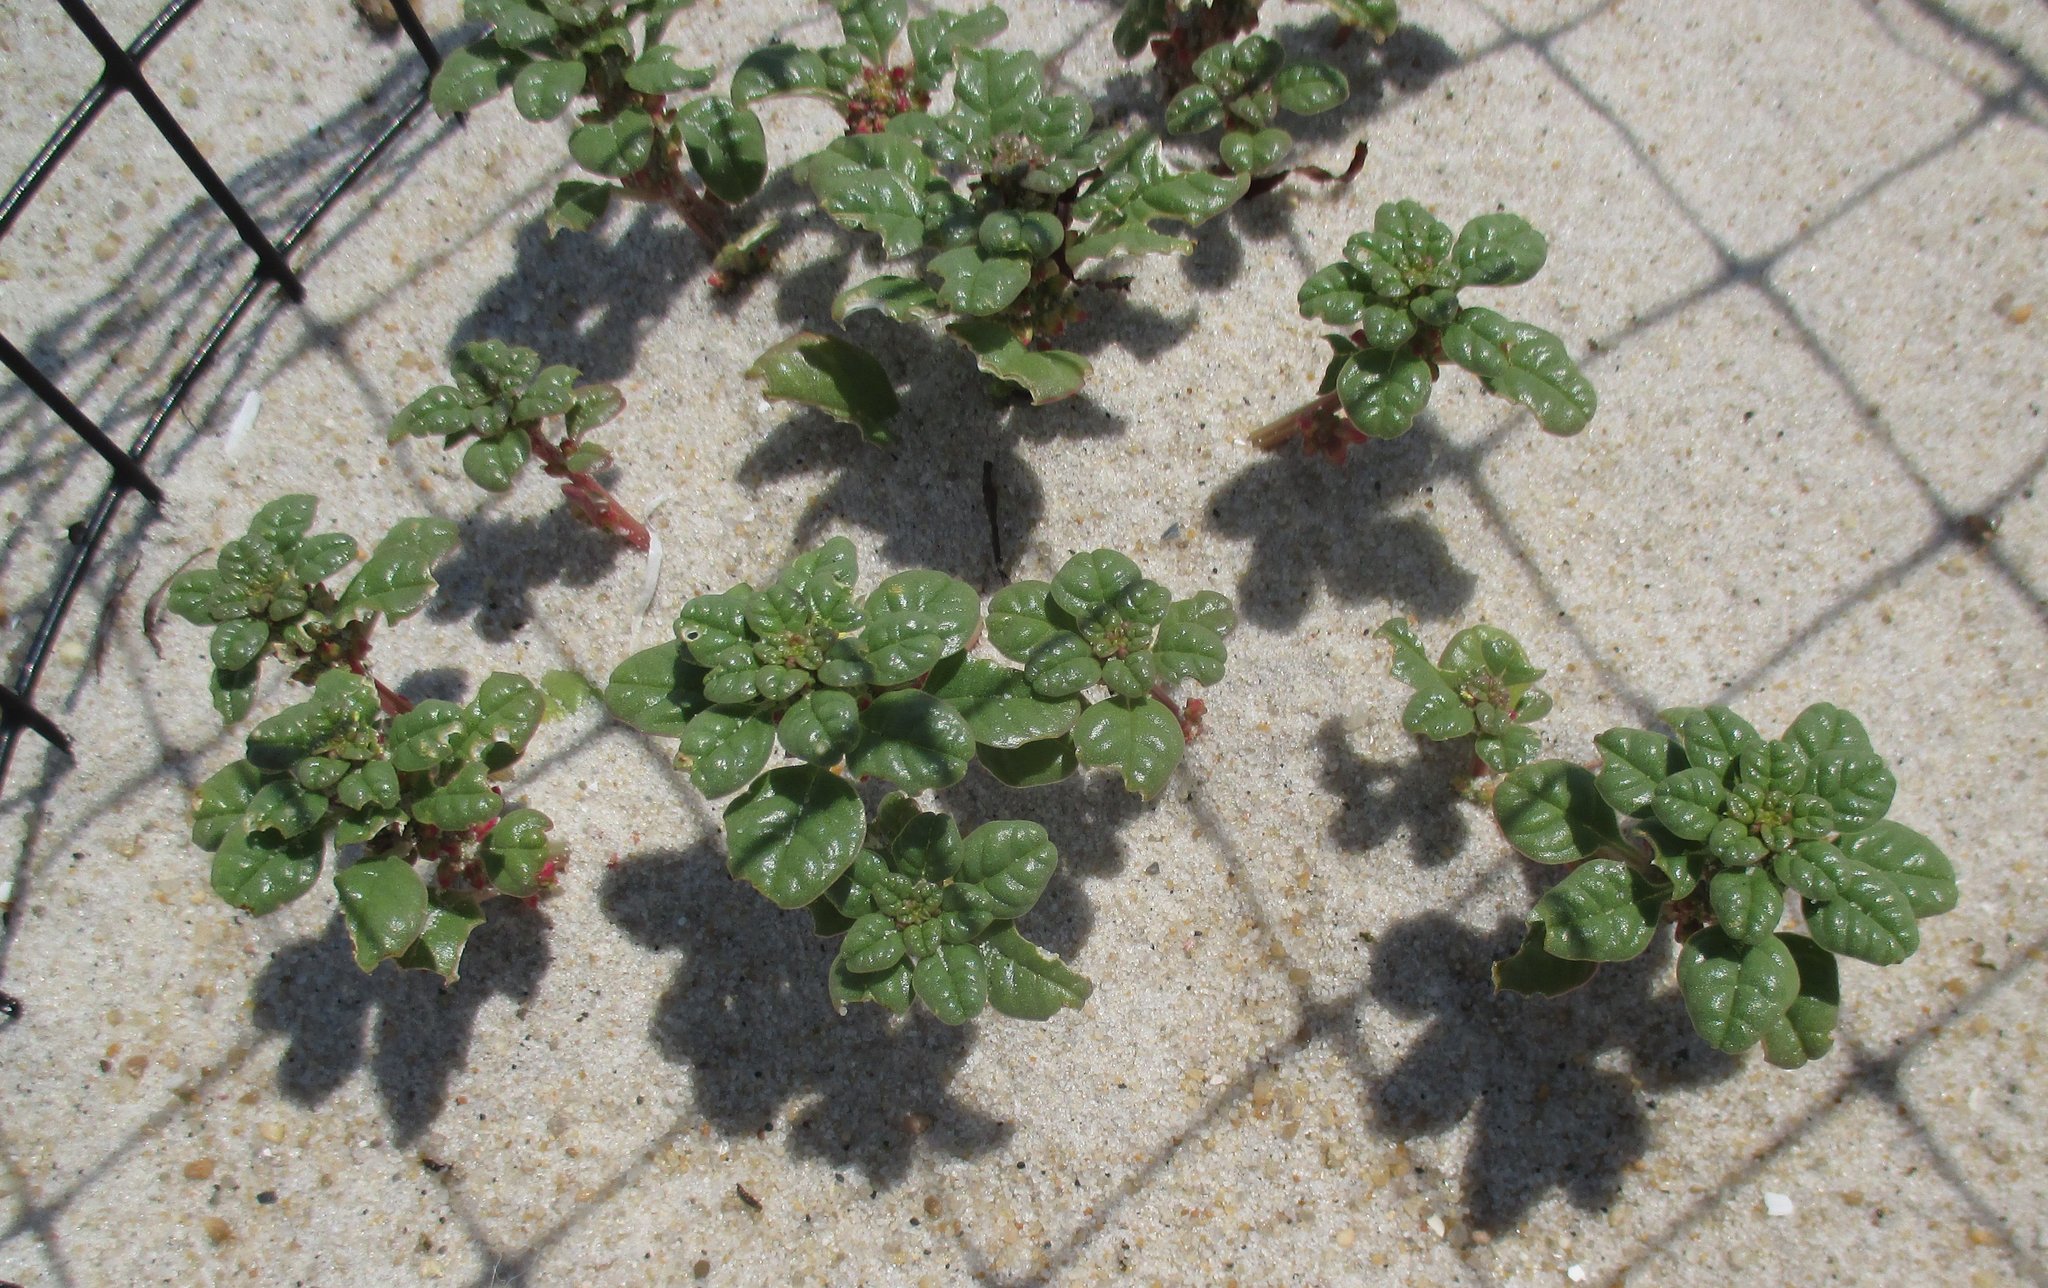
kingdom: Plantae
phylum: Tracheophyta
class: Magnoliopsida
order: Caryophyllales
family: Amaranthaceae
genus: Amaranthus
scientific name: Amaranthus pumilus
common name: Coast amaranth
